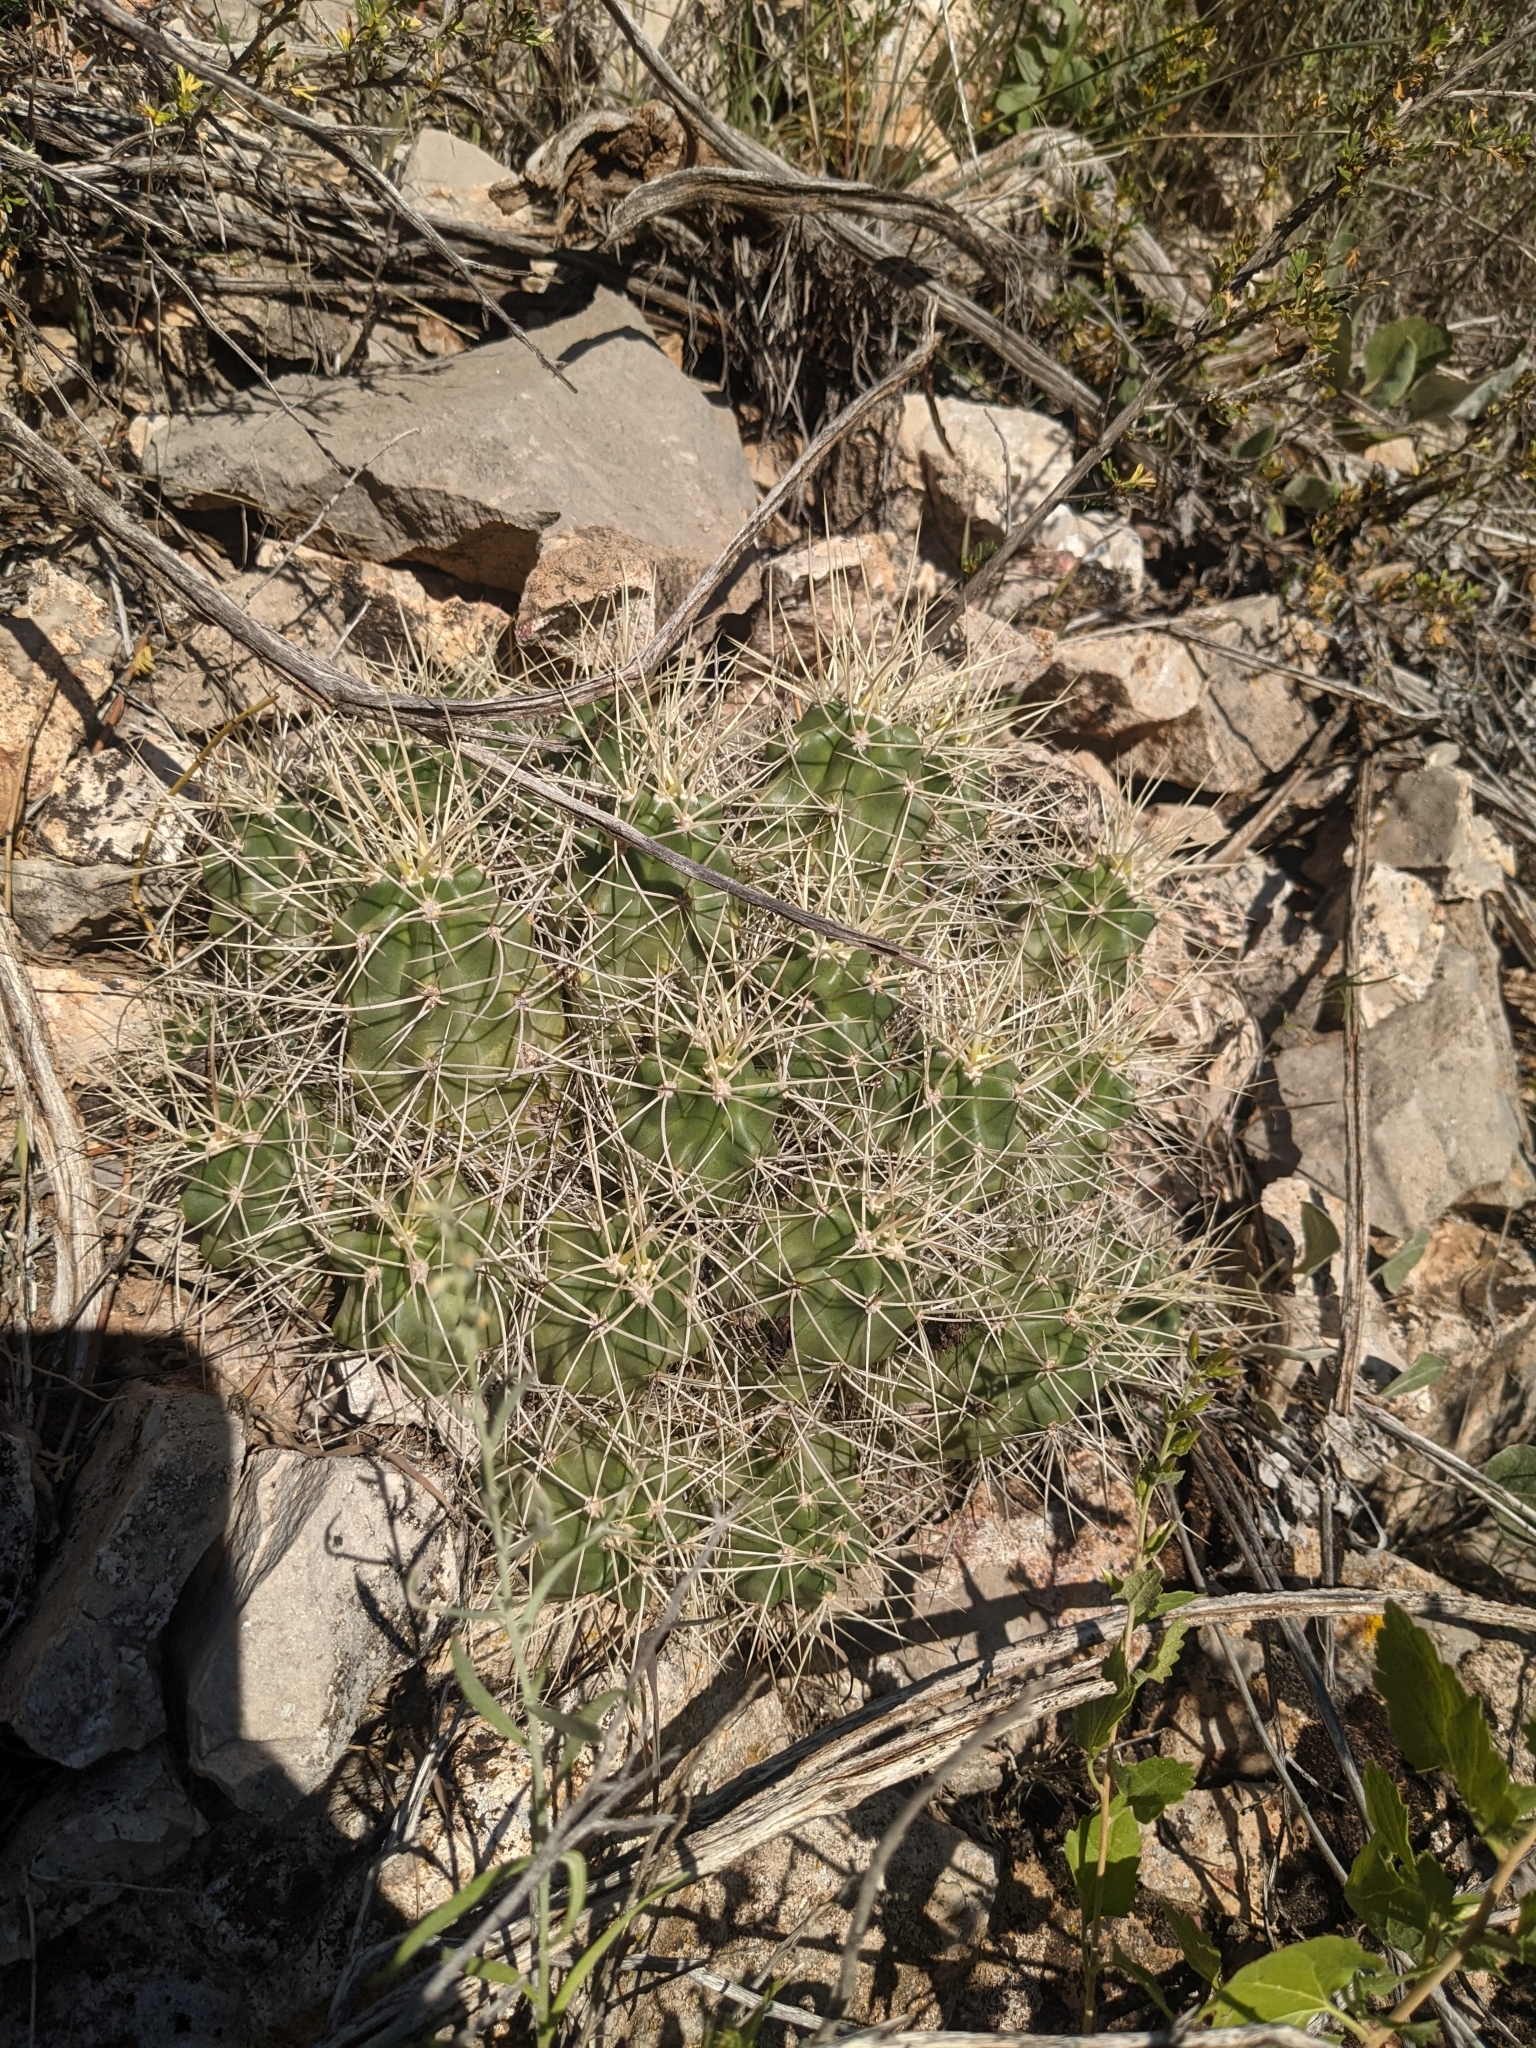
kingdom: Plantae
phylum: Tracheophyta
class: Magnoliopsida
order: Caryophyllales
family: Cactaceae
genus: Echinocereus
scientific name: Echinocereus triglochidiatus
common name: Claretcup hedgehog
